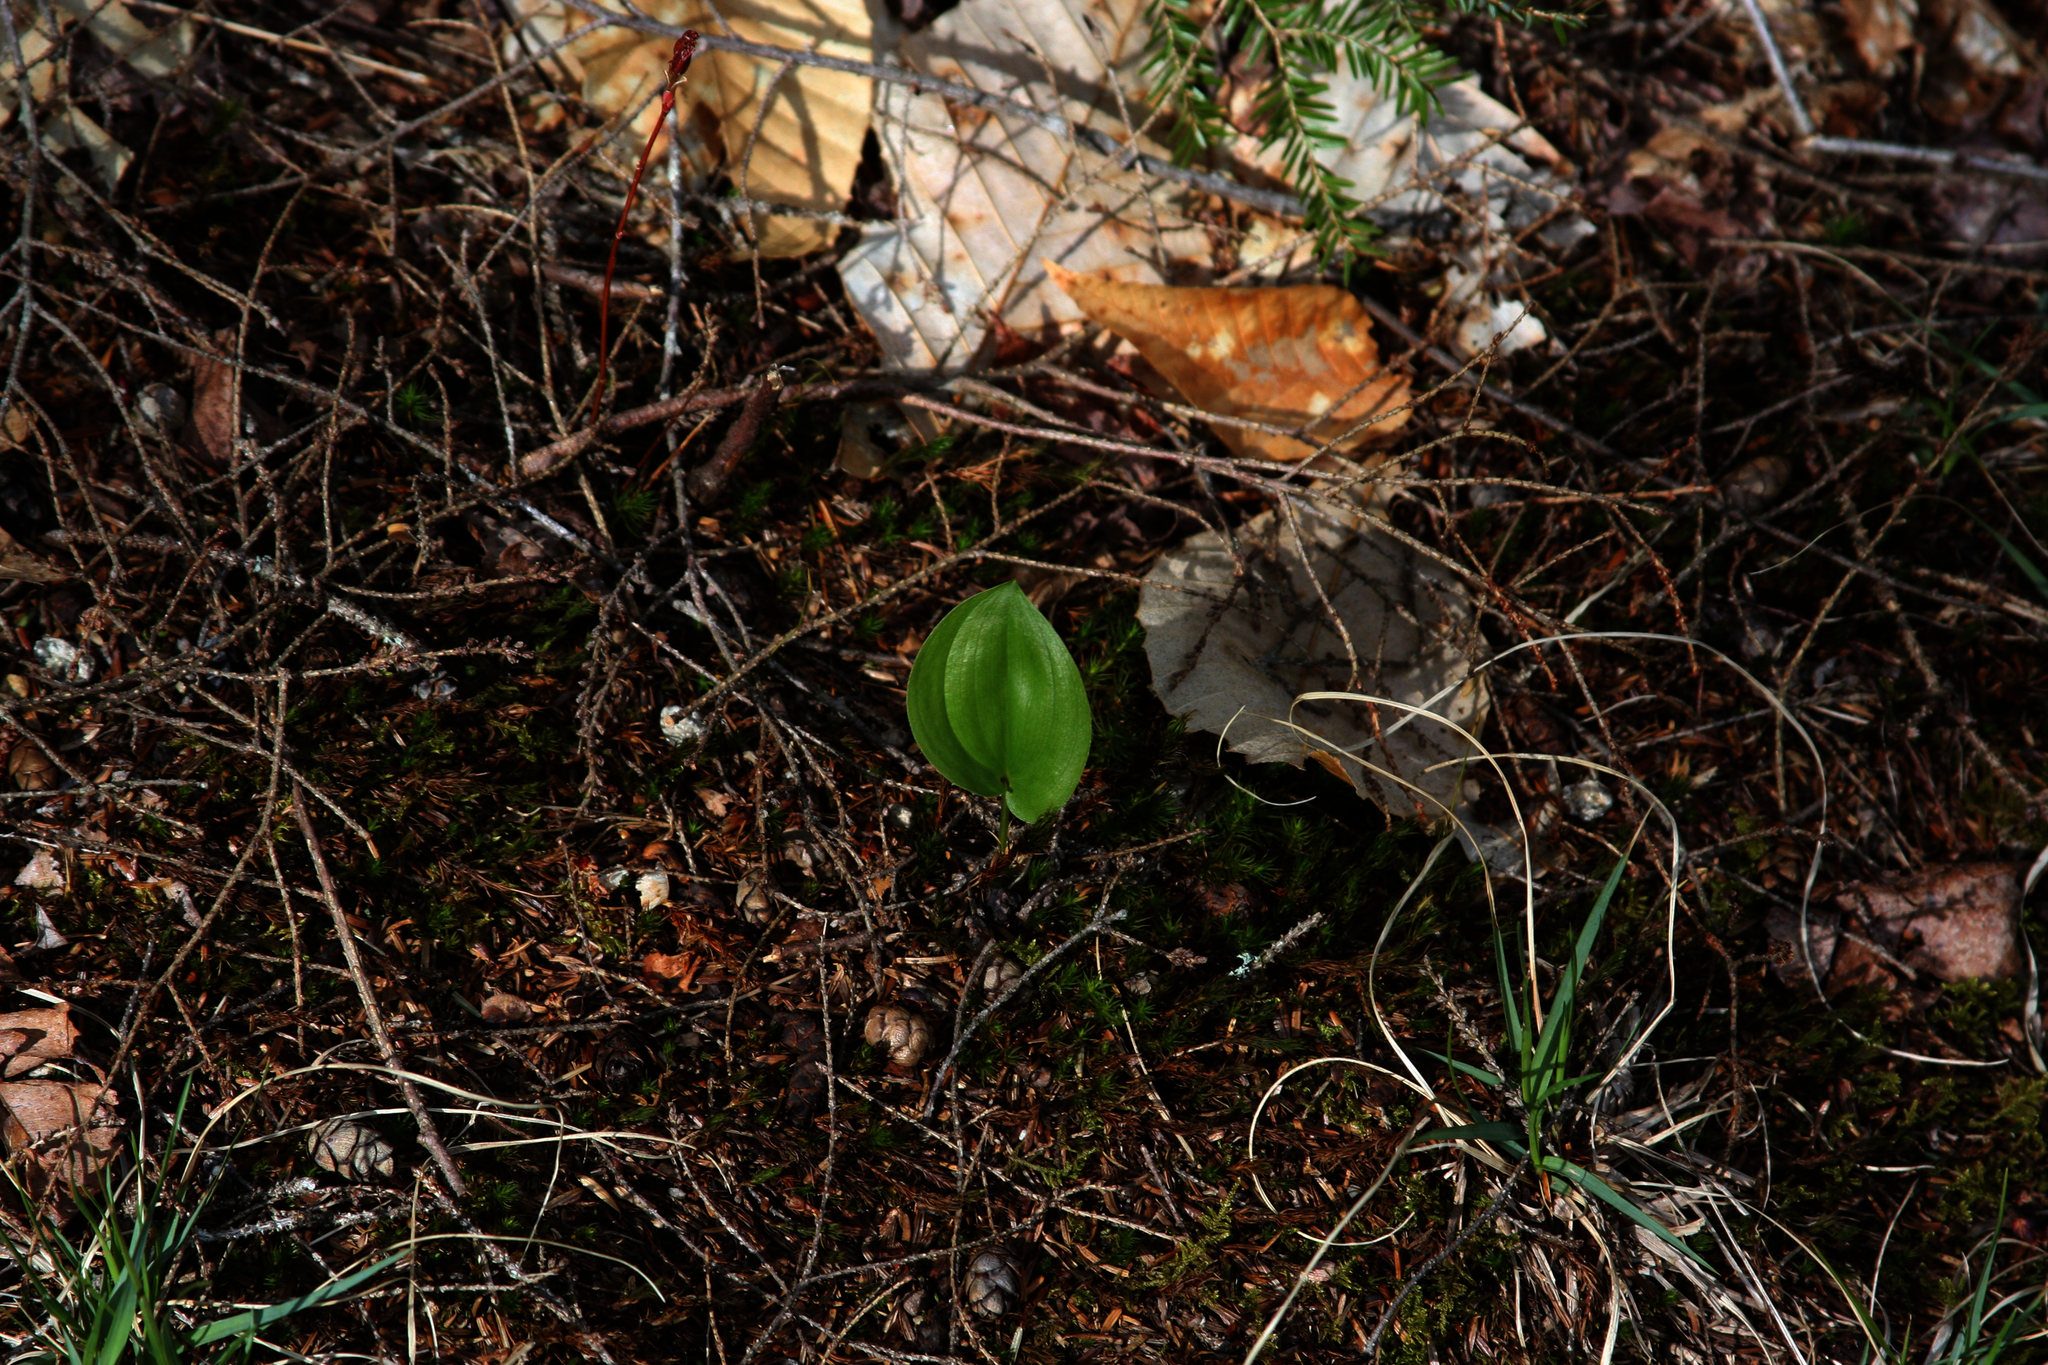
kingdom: Plantae
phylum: Tracheophyta
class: Liliopsida
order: Asparagales
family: Asparagaceae
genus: Maianthemum
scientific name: Maianthemum canadense
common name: False lily-of-the-valley
